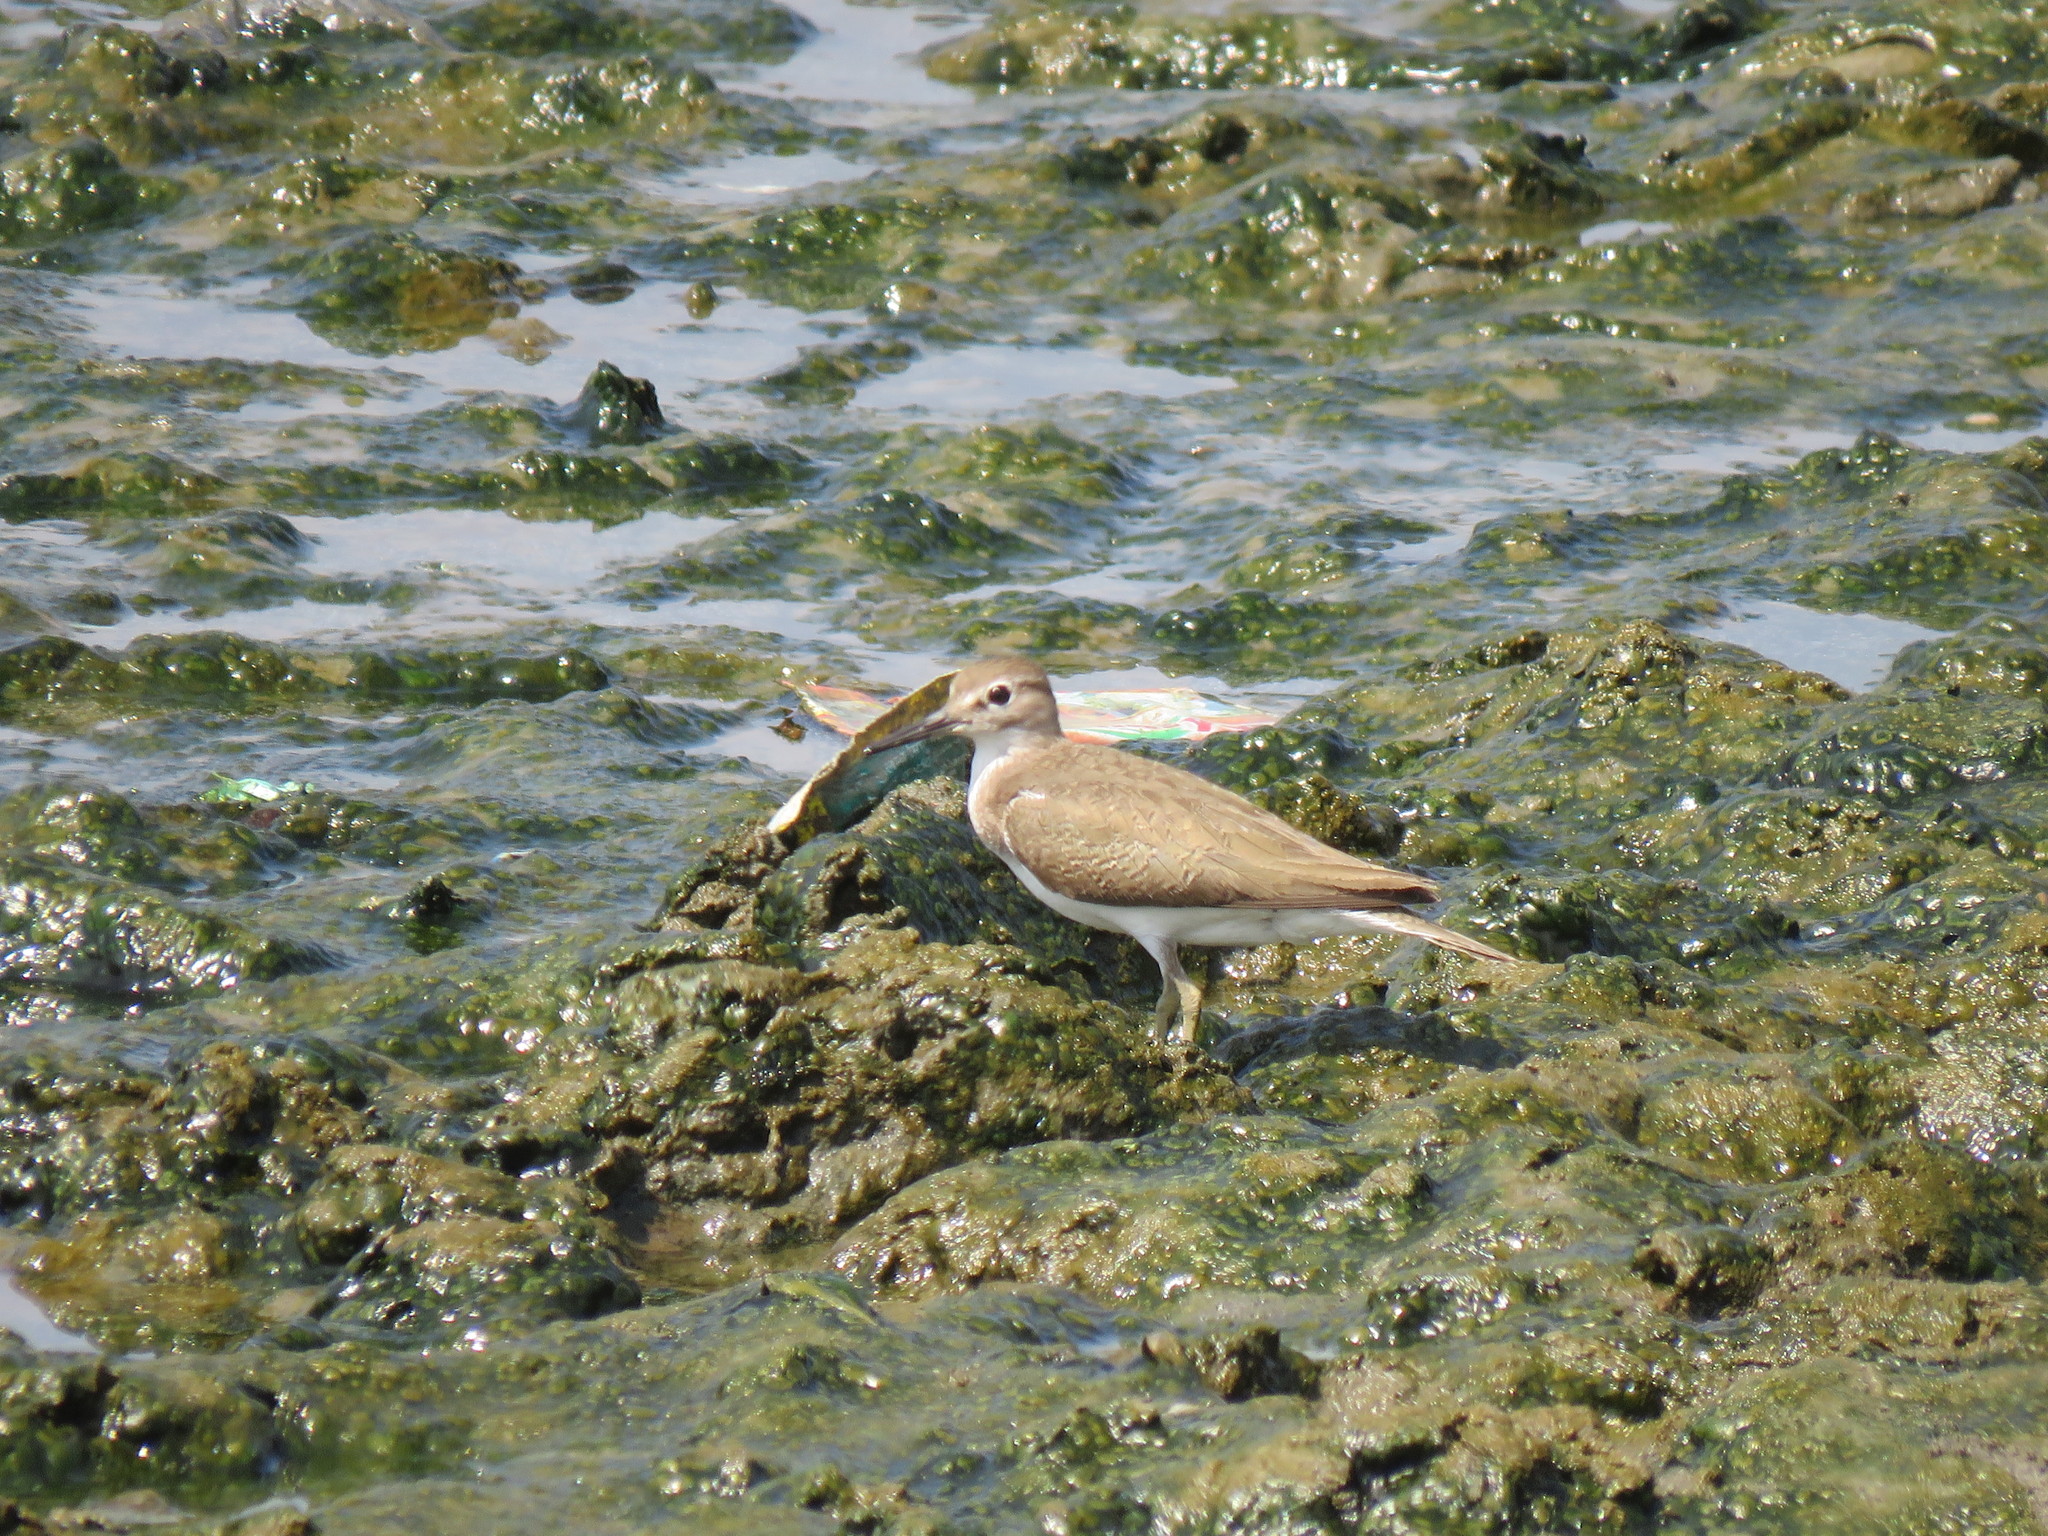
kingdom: Animalia
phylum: Chordata
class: Aves
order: Charadriiformes
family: Scolopacidae
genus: Actitis
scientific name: Actitis hypoleucos
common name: Common sandpiper
